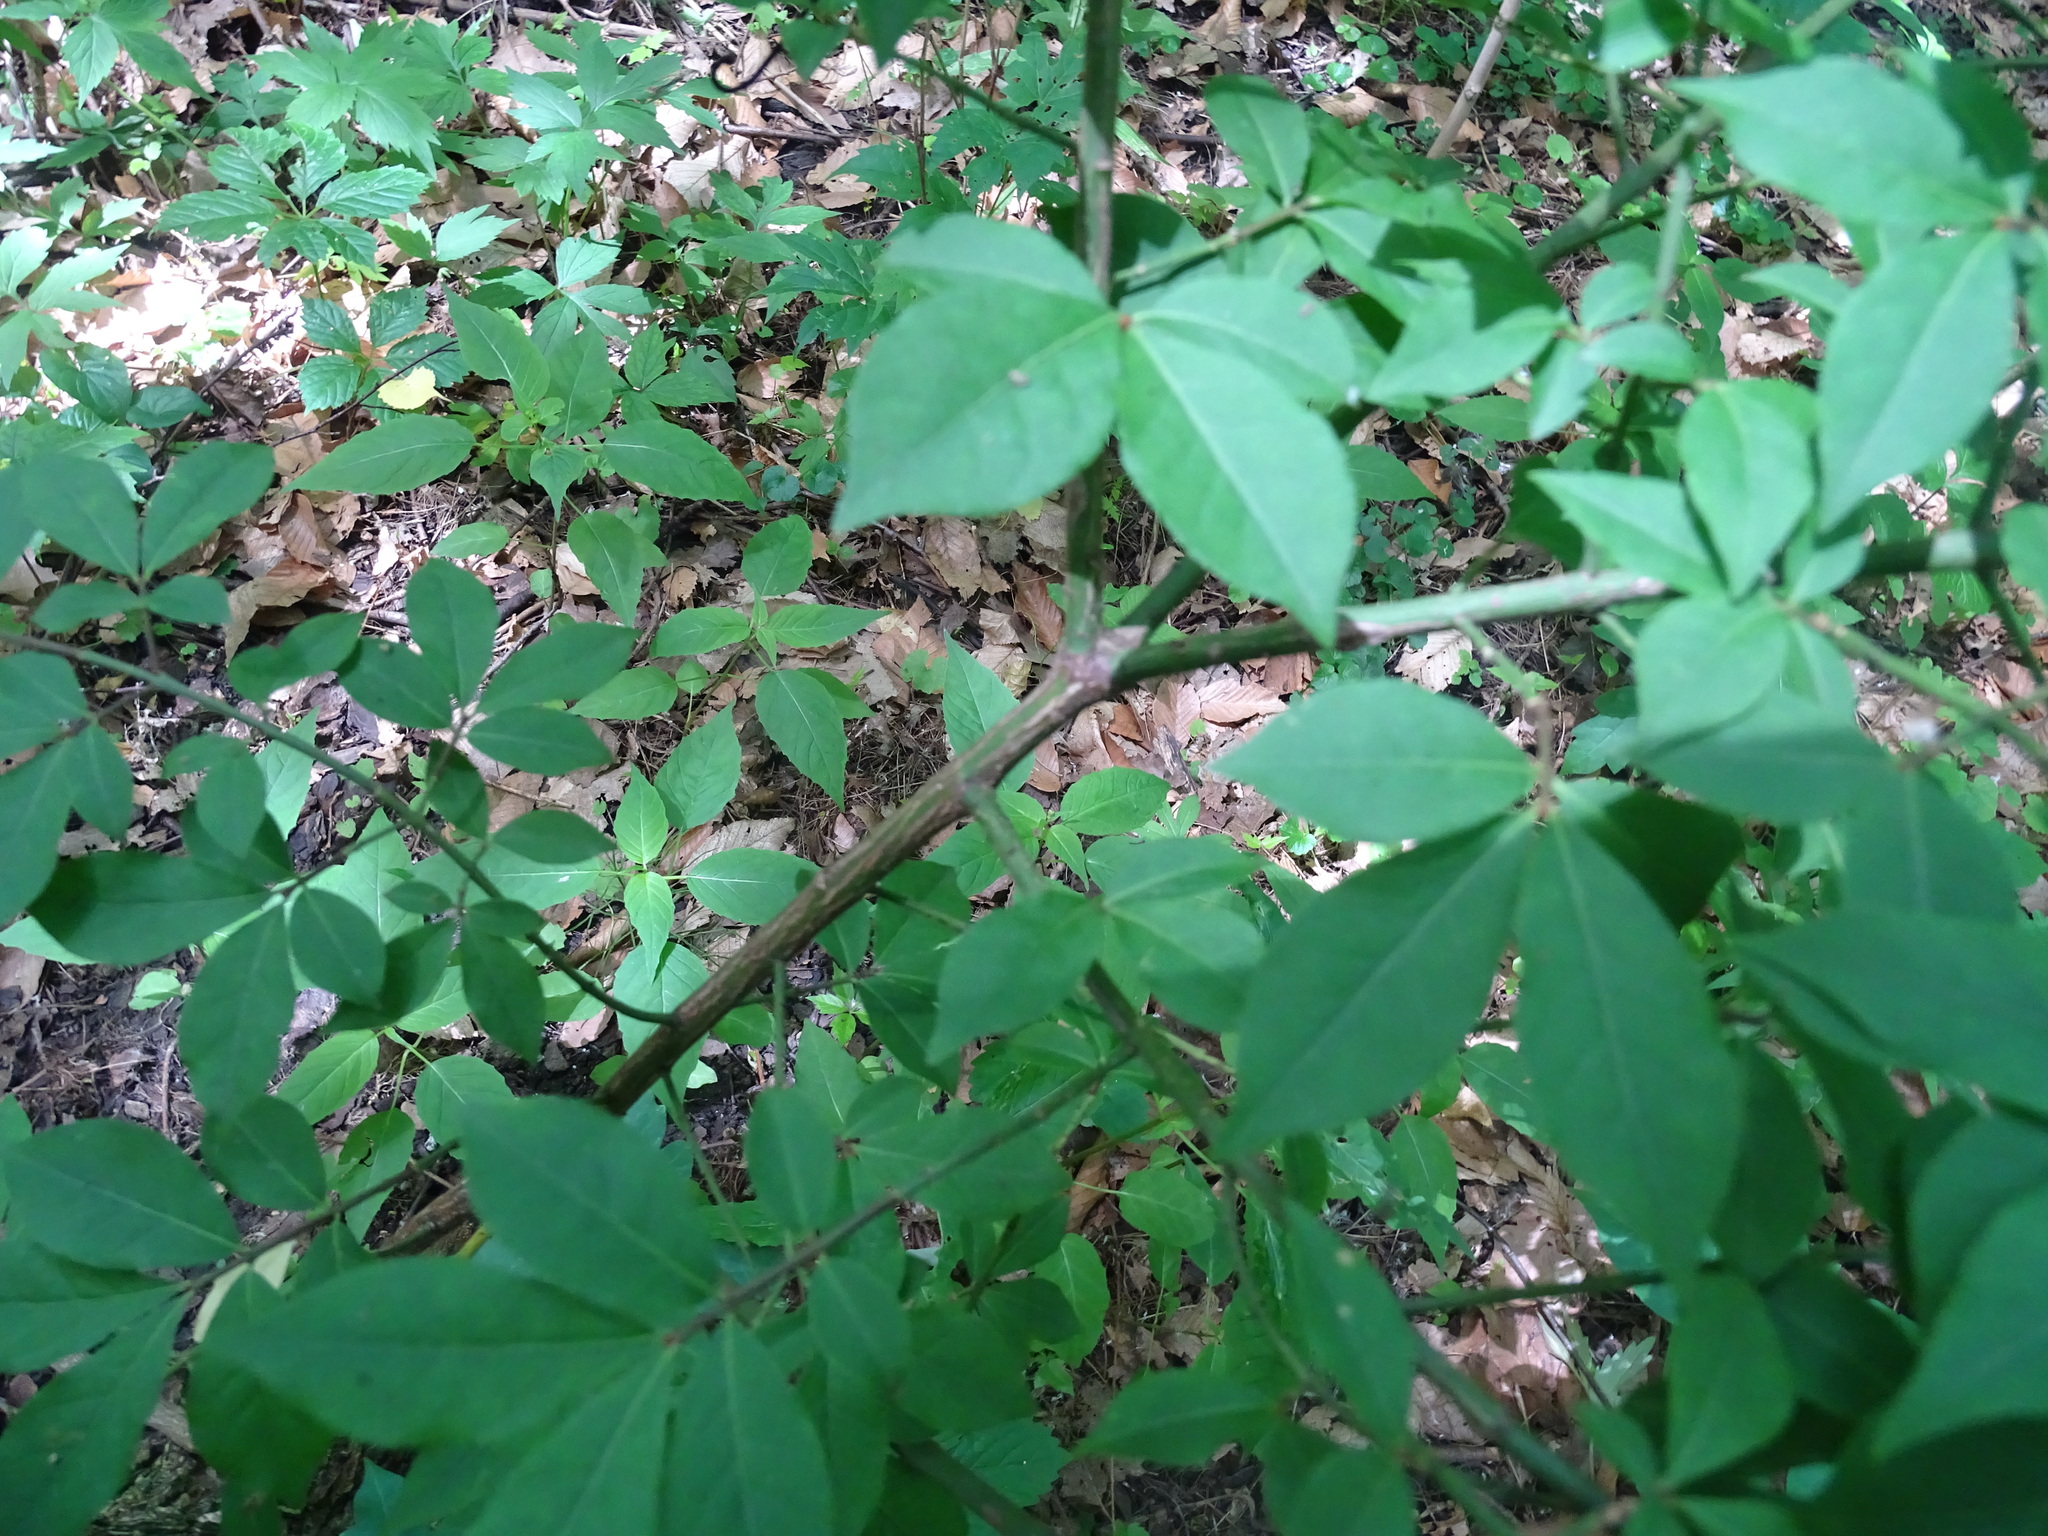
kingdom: Plantae
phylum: Tracheophyta
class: Magnoliopsida
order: Celastrales
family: Celastraceae
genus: Euonymus
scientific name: Euonymus europaeus
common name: Spindle
